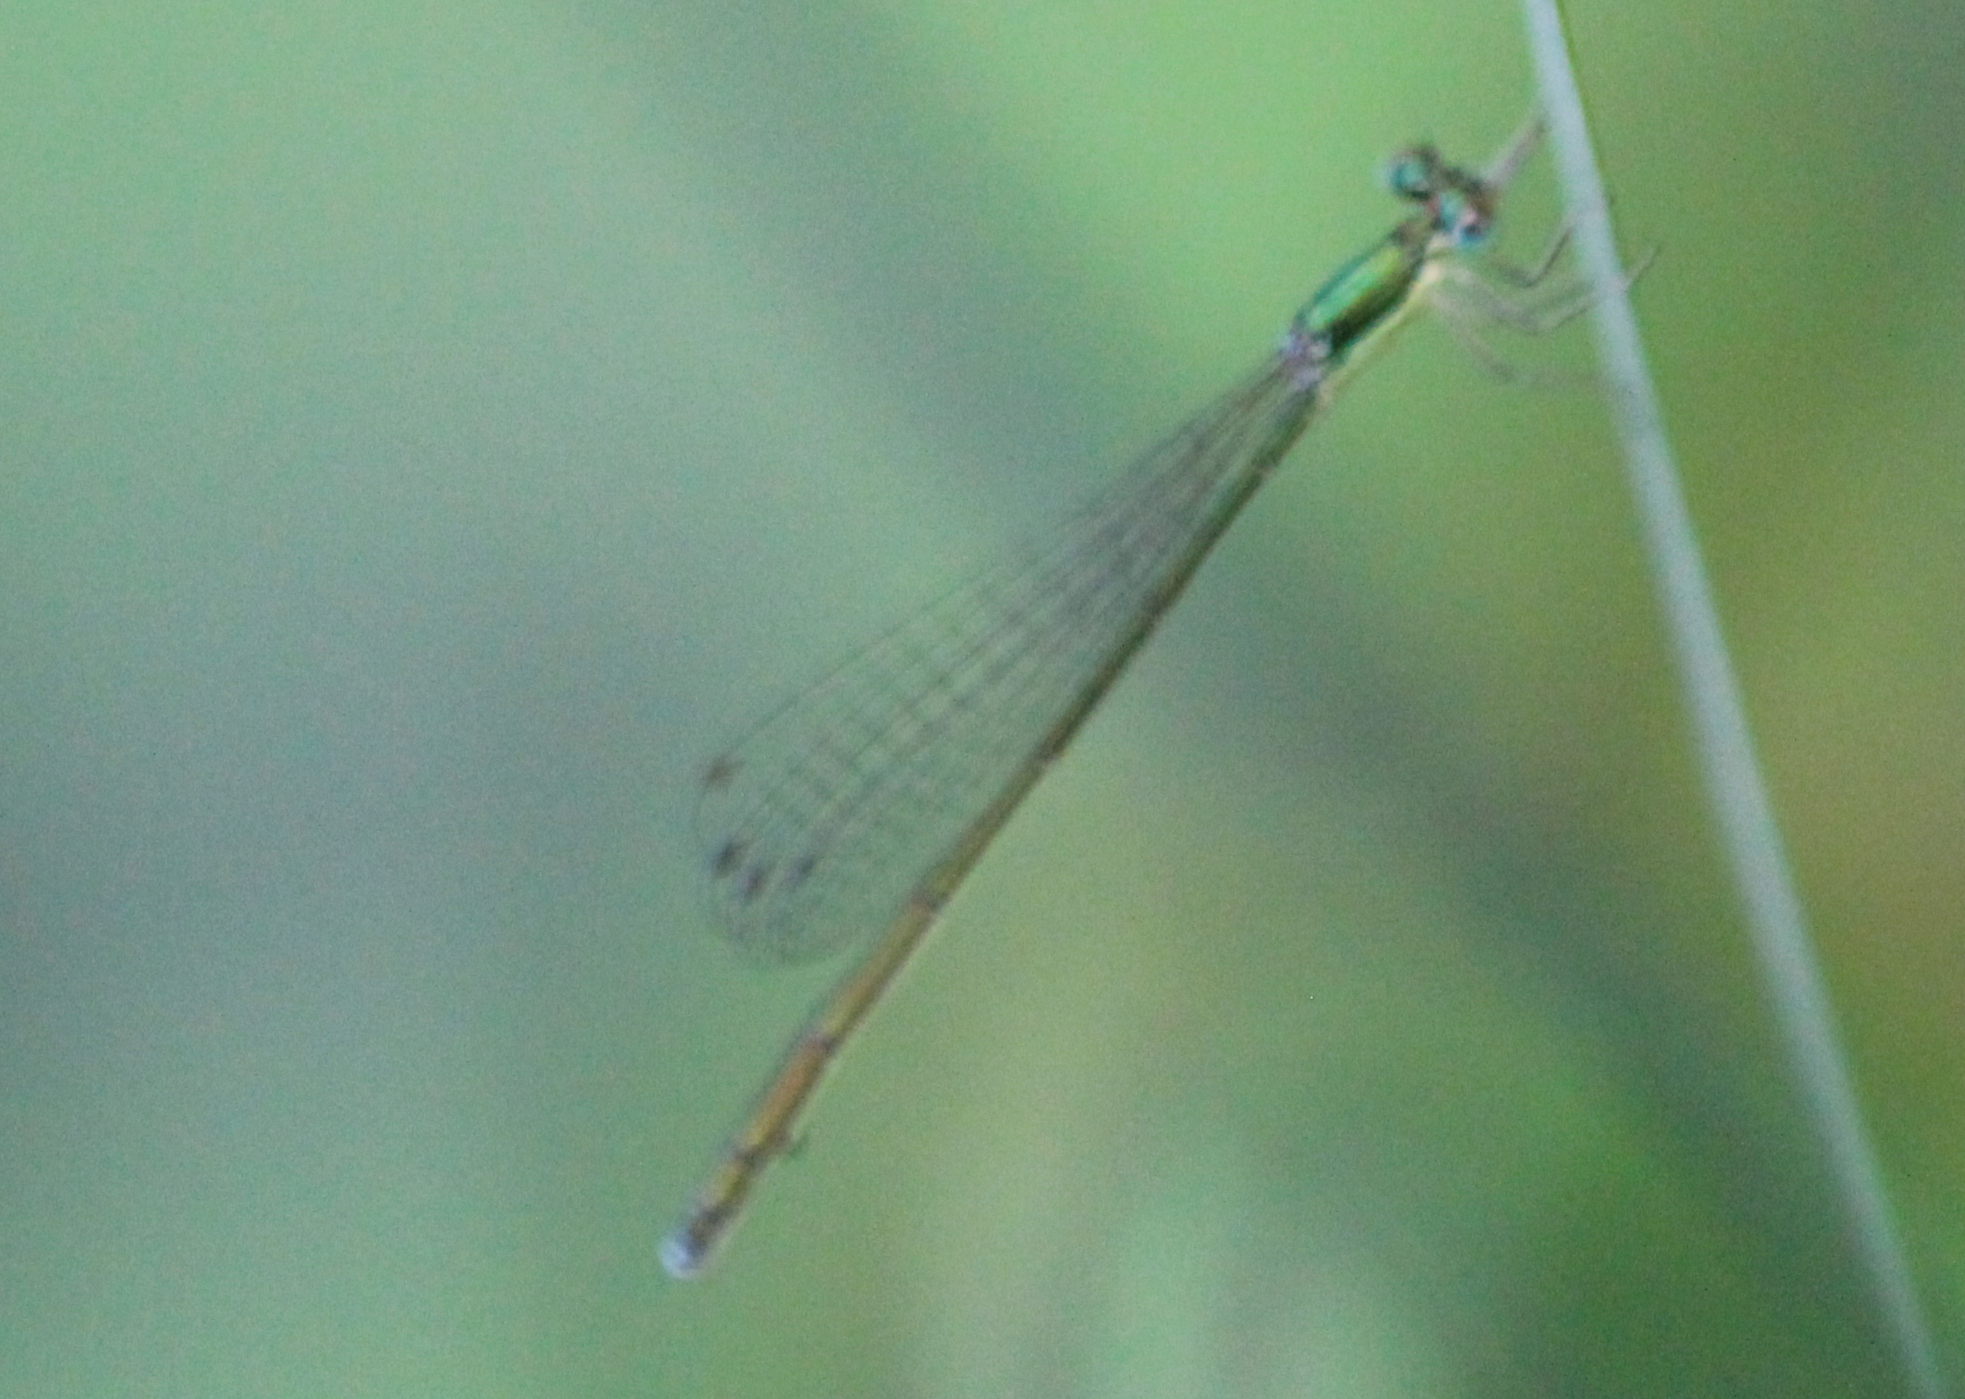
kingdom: Animalia
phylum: Arthropoda
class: Insecta
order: Odonata
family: Coenagrionidae
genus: Nehalennia
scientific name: Nehalennia irene
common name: Sedge sprite
